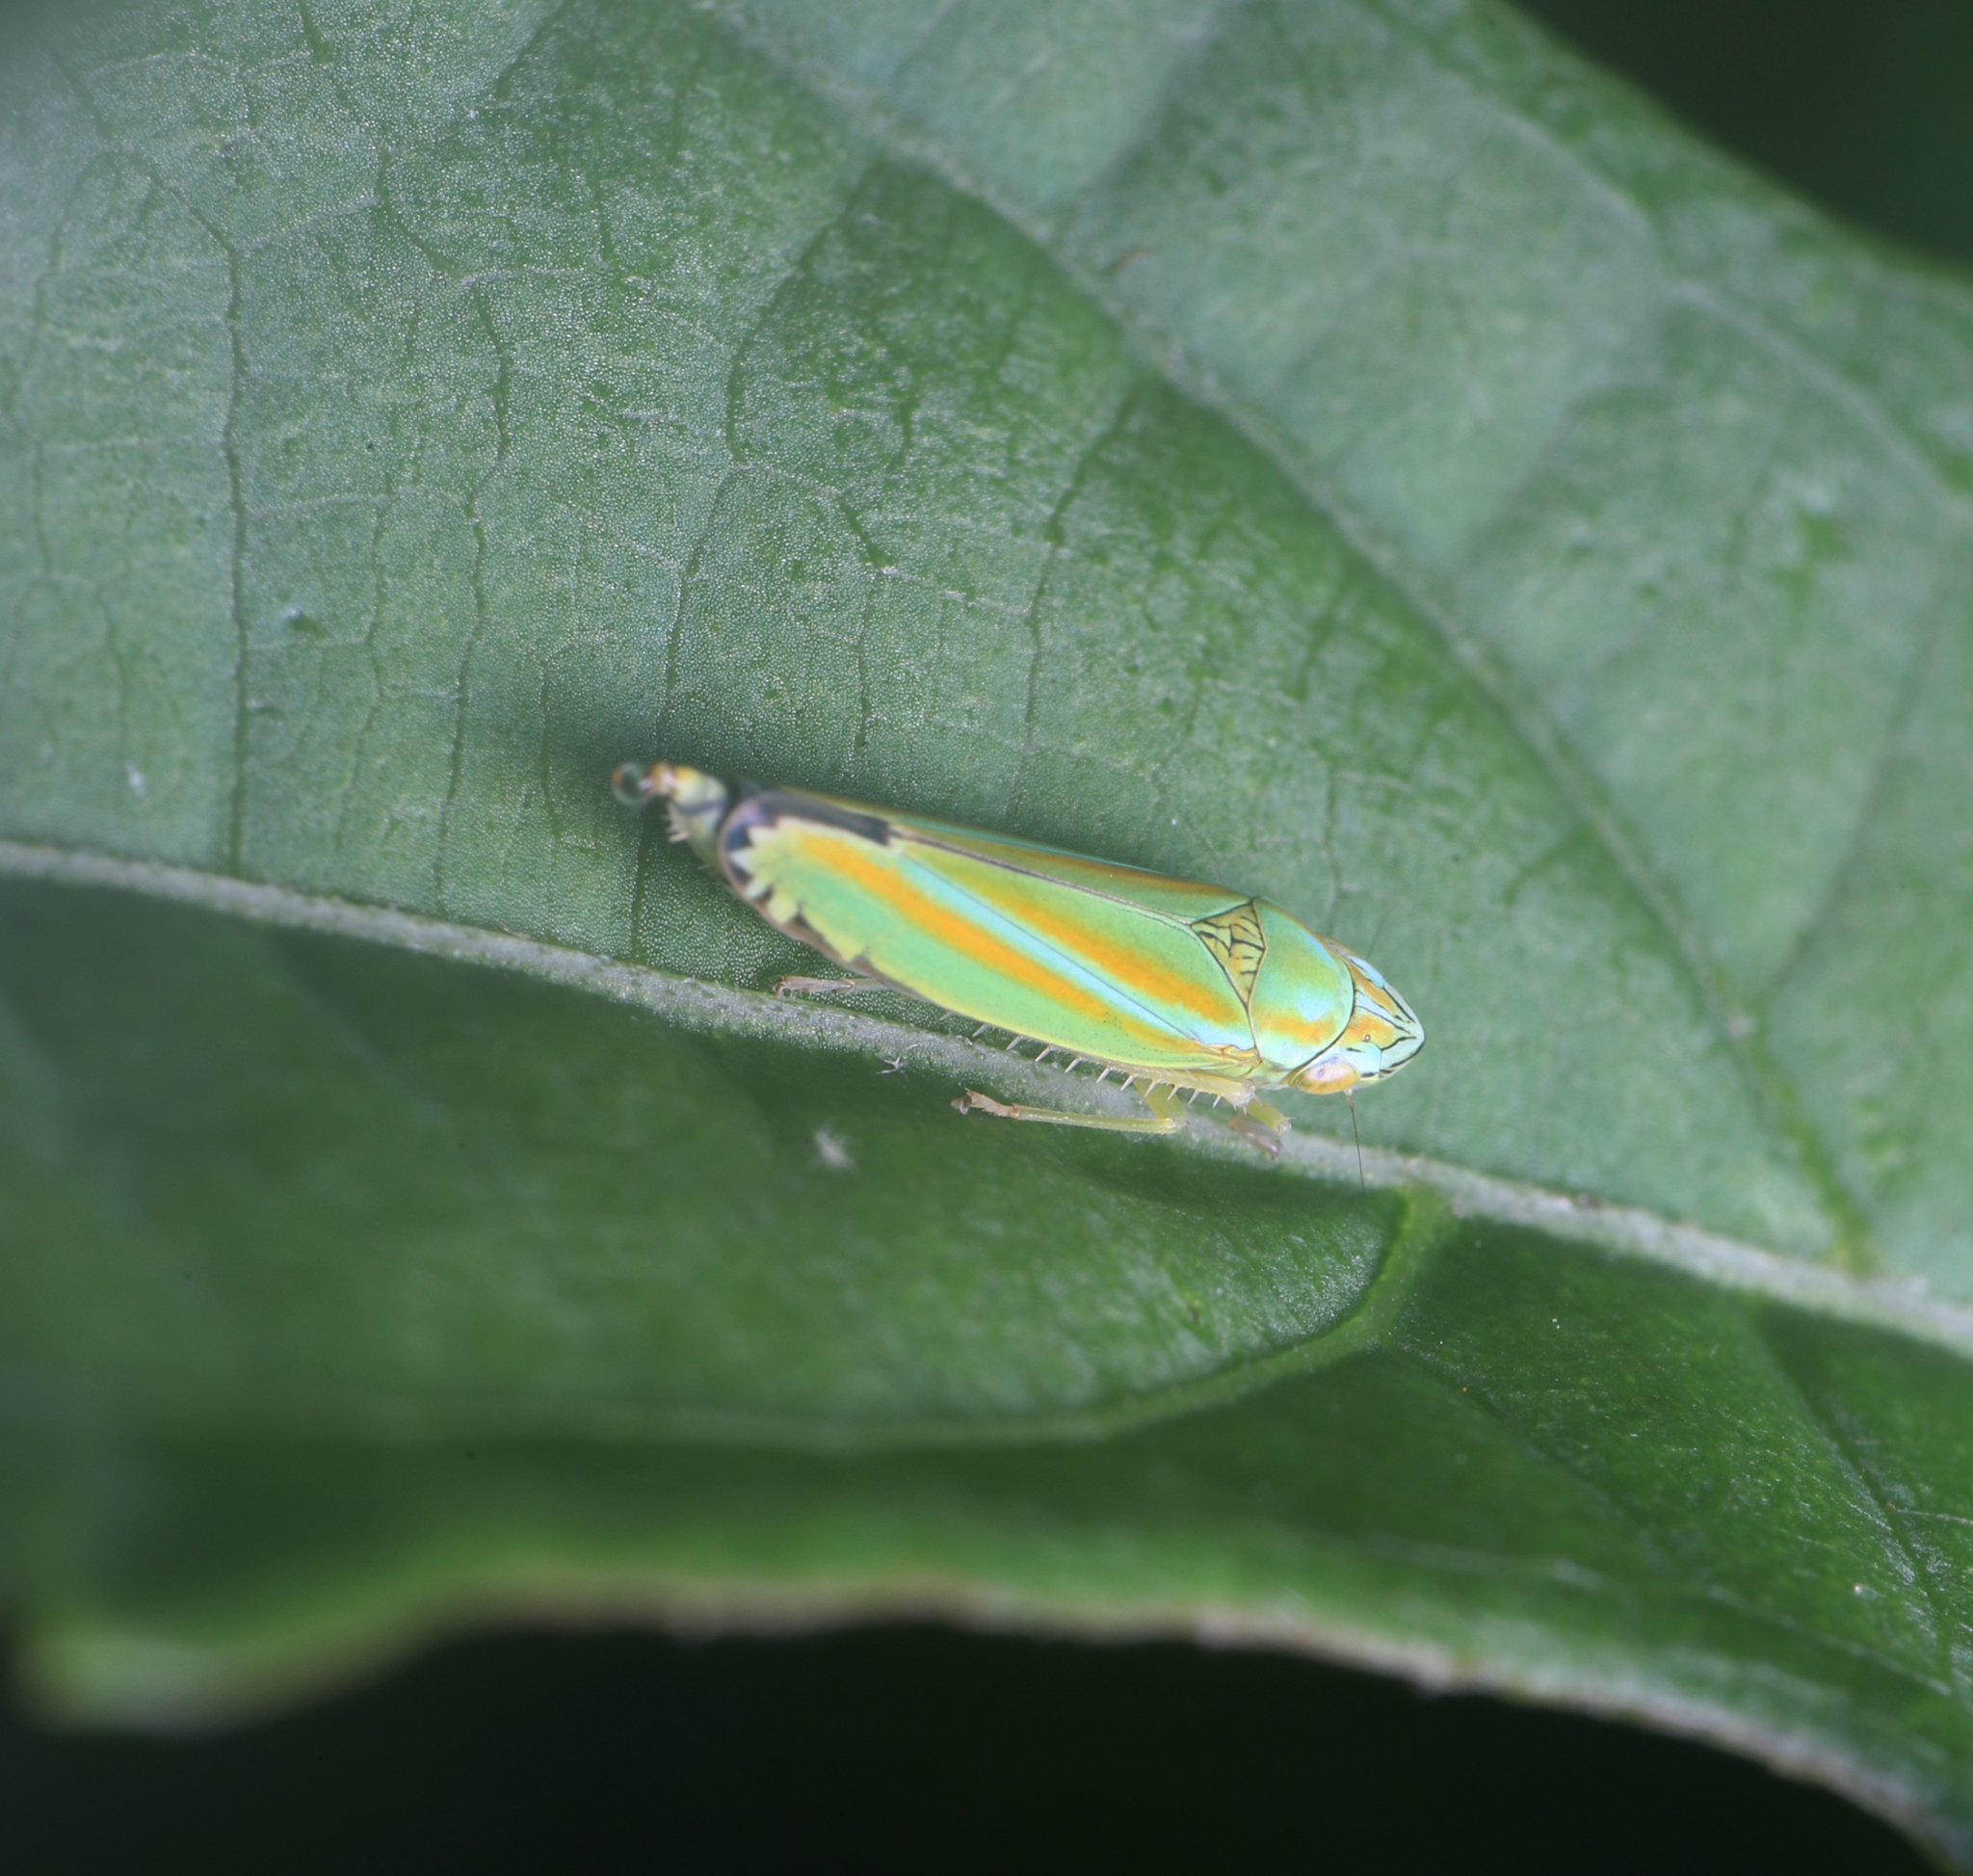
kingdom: Animalia
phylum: Arthropoda
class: Insecta
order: Hemiptera
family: Cicadellidae
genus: Graphocephala
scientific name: Graphocephala versuta
